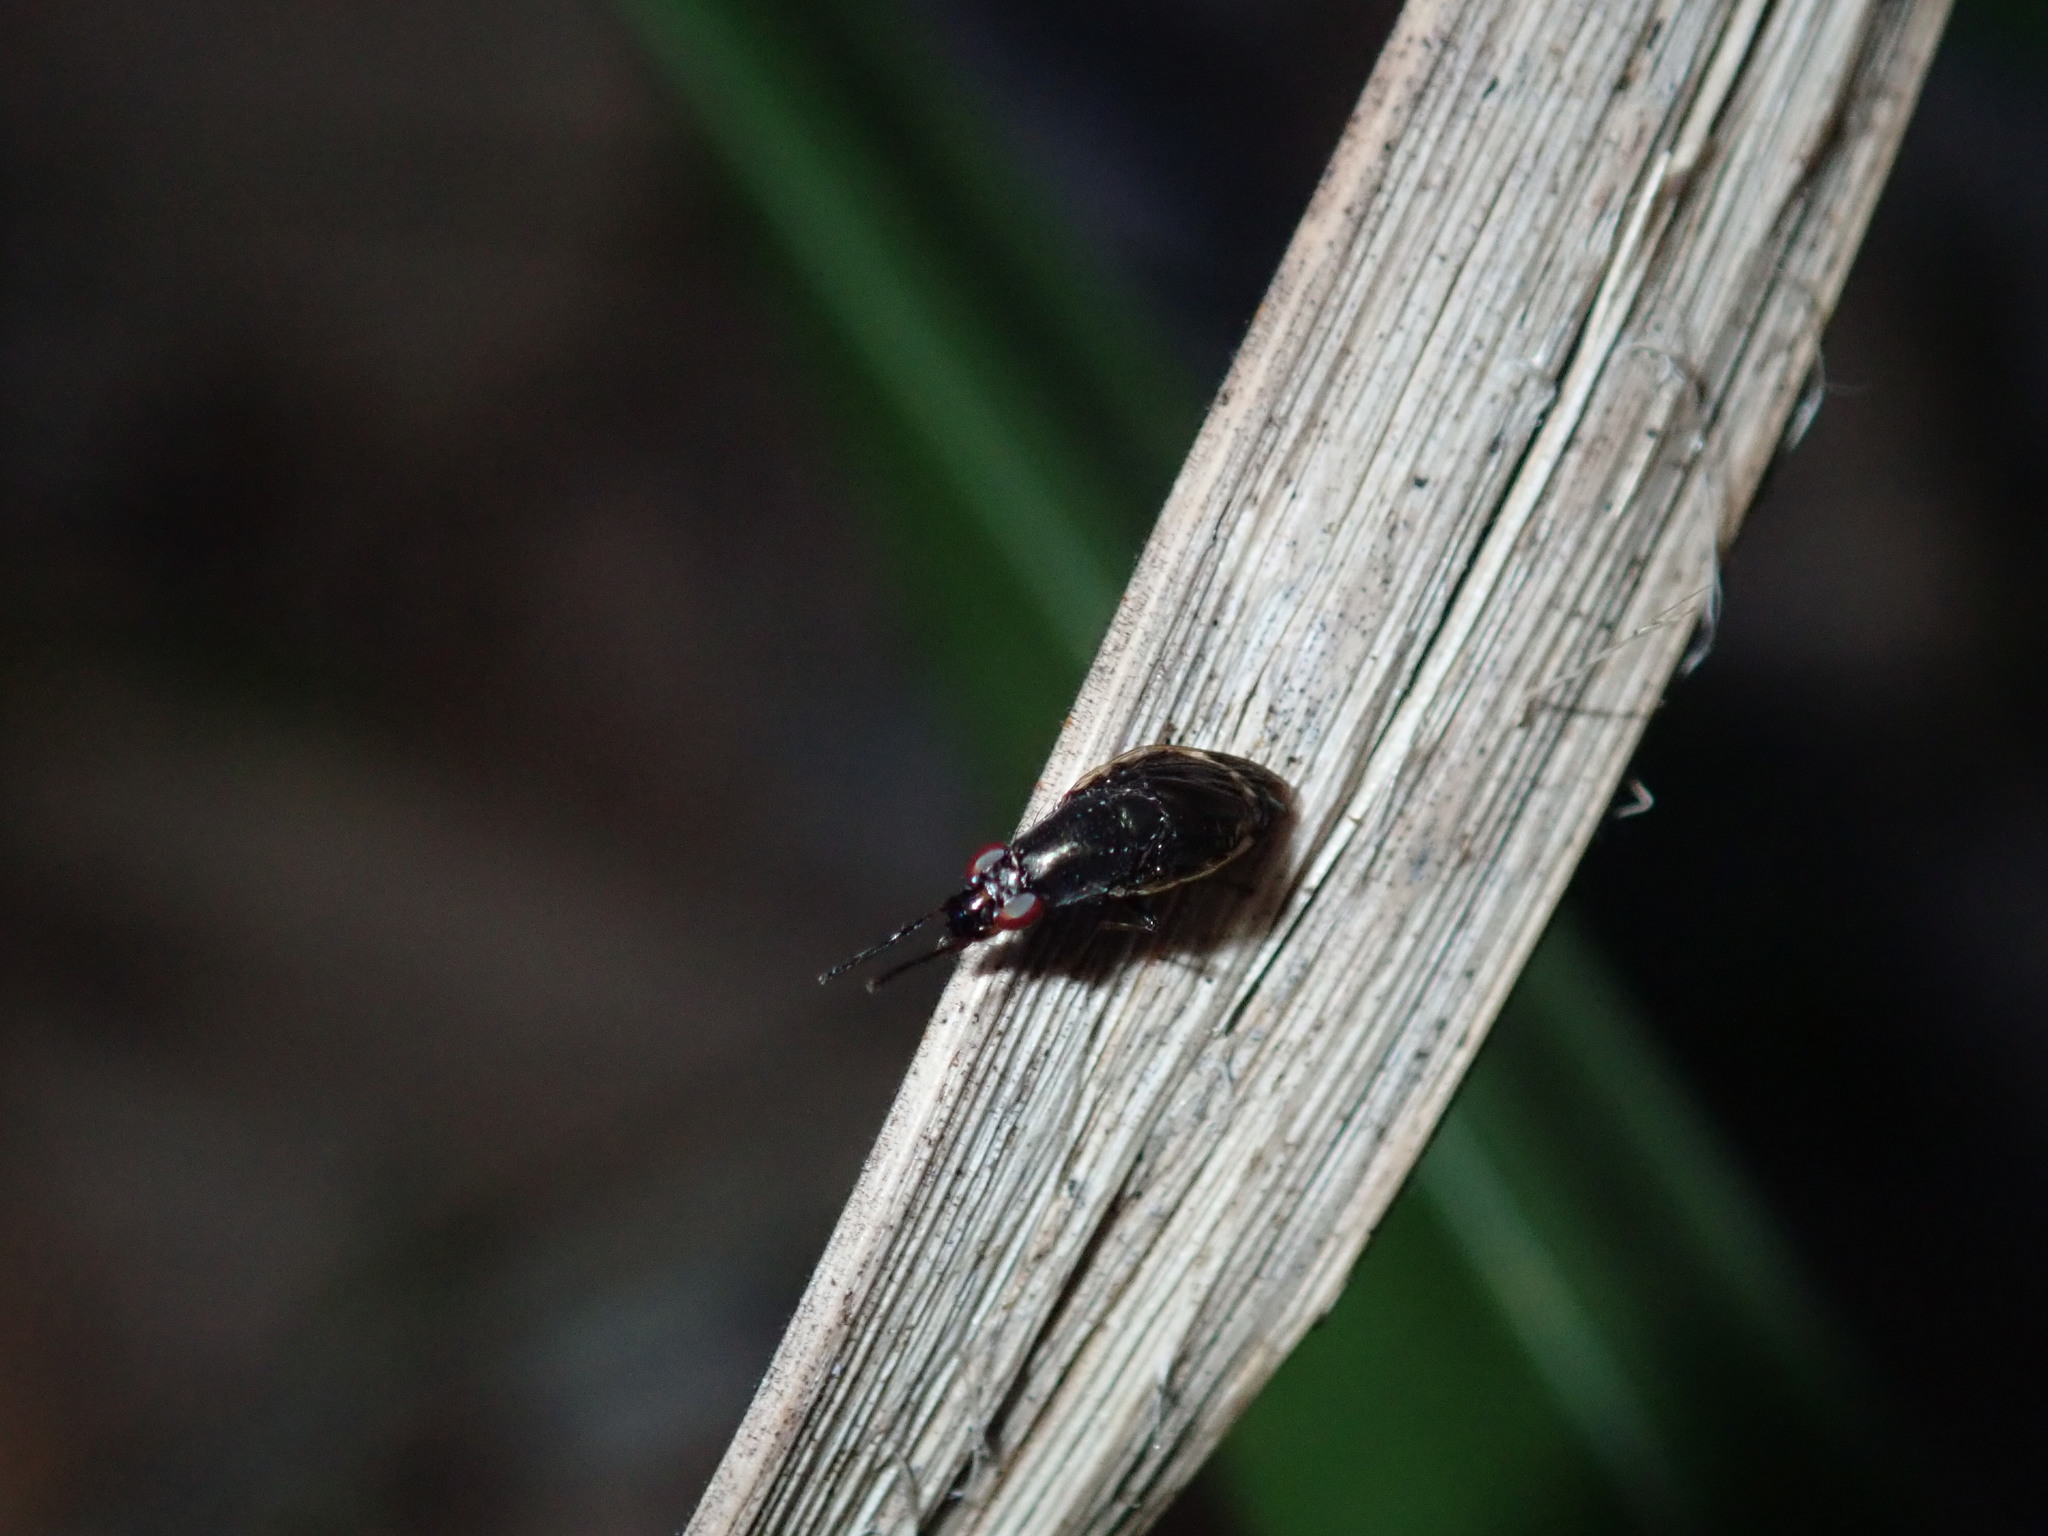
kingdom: Animalia
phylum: Arthropoda
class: Insecta
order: Diptera
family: Lauxaniidae
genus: Depressa
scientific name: Depressa albicosta
